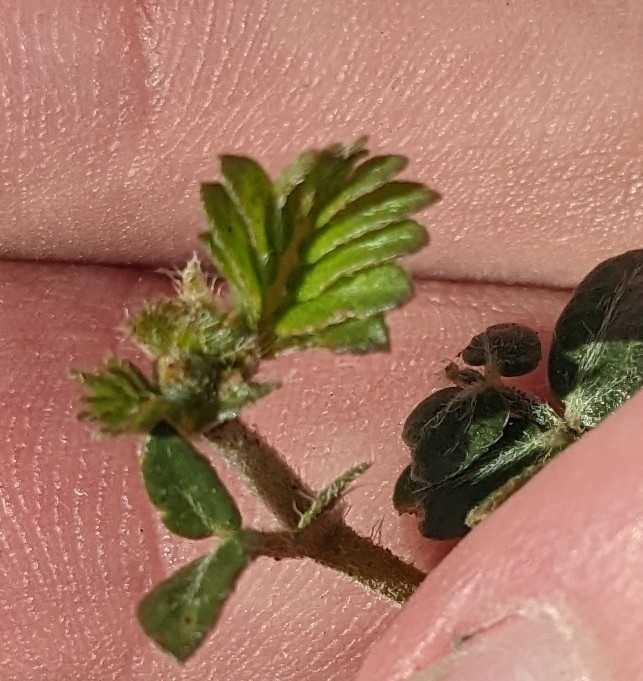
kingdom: Plantae
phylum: Tracheophyta
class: Magnoliopsida
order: Zygophyllales
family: Zygophyllaceae
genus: Tribulus
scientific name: Tribulus terrestris
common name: Puncturevine
